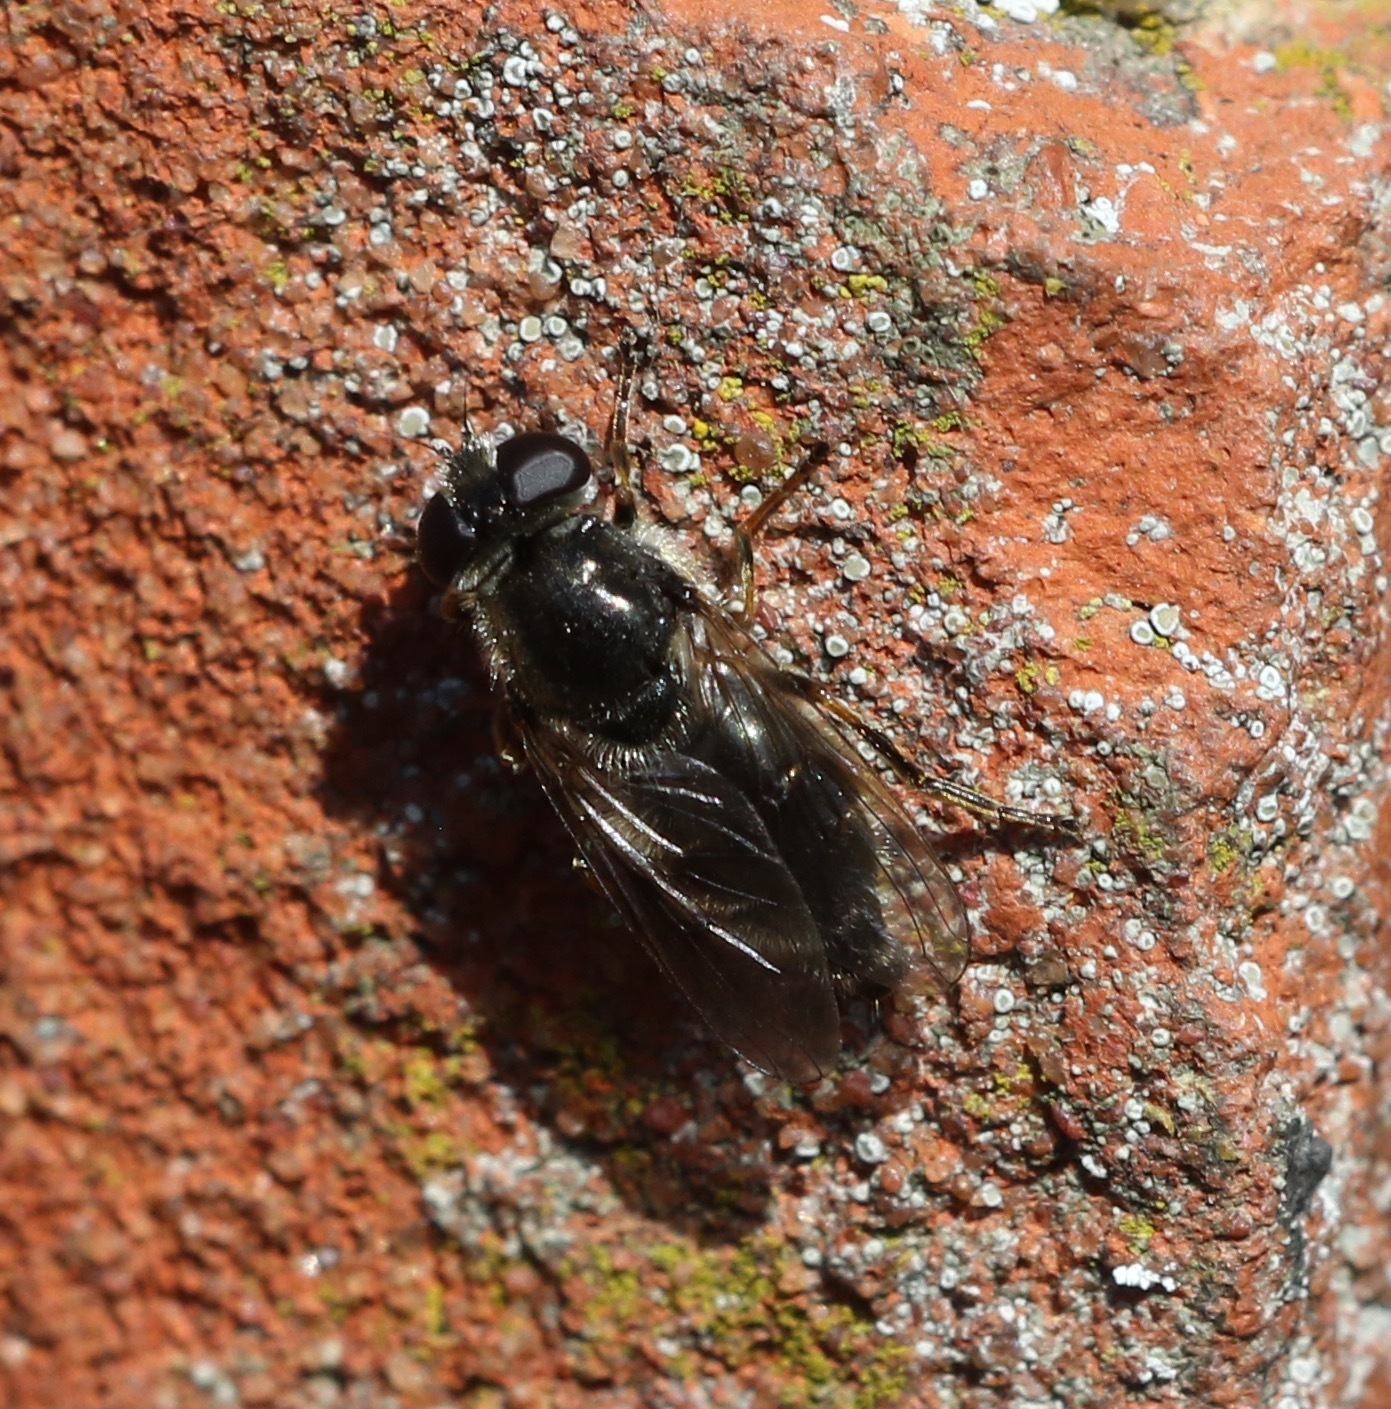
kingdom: Animalia
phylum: Arthropoda
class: Insecta
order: Diptera
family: Syrphidae
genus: Cheilosia
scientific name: Cheilosia caerulescens
